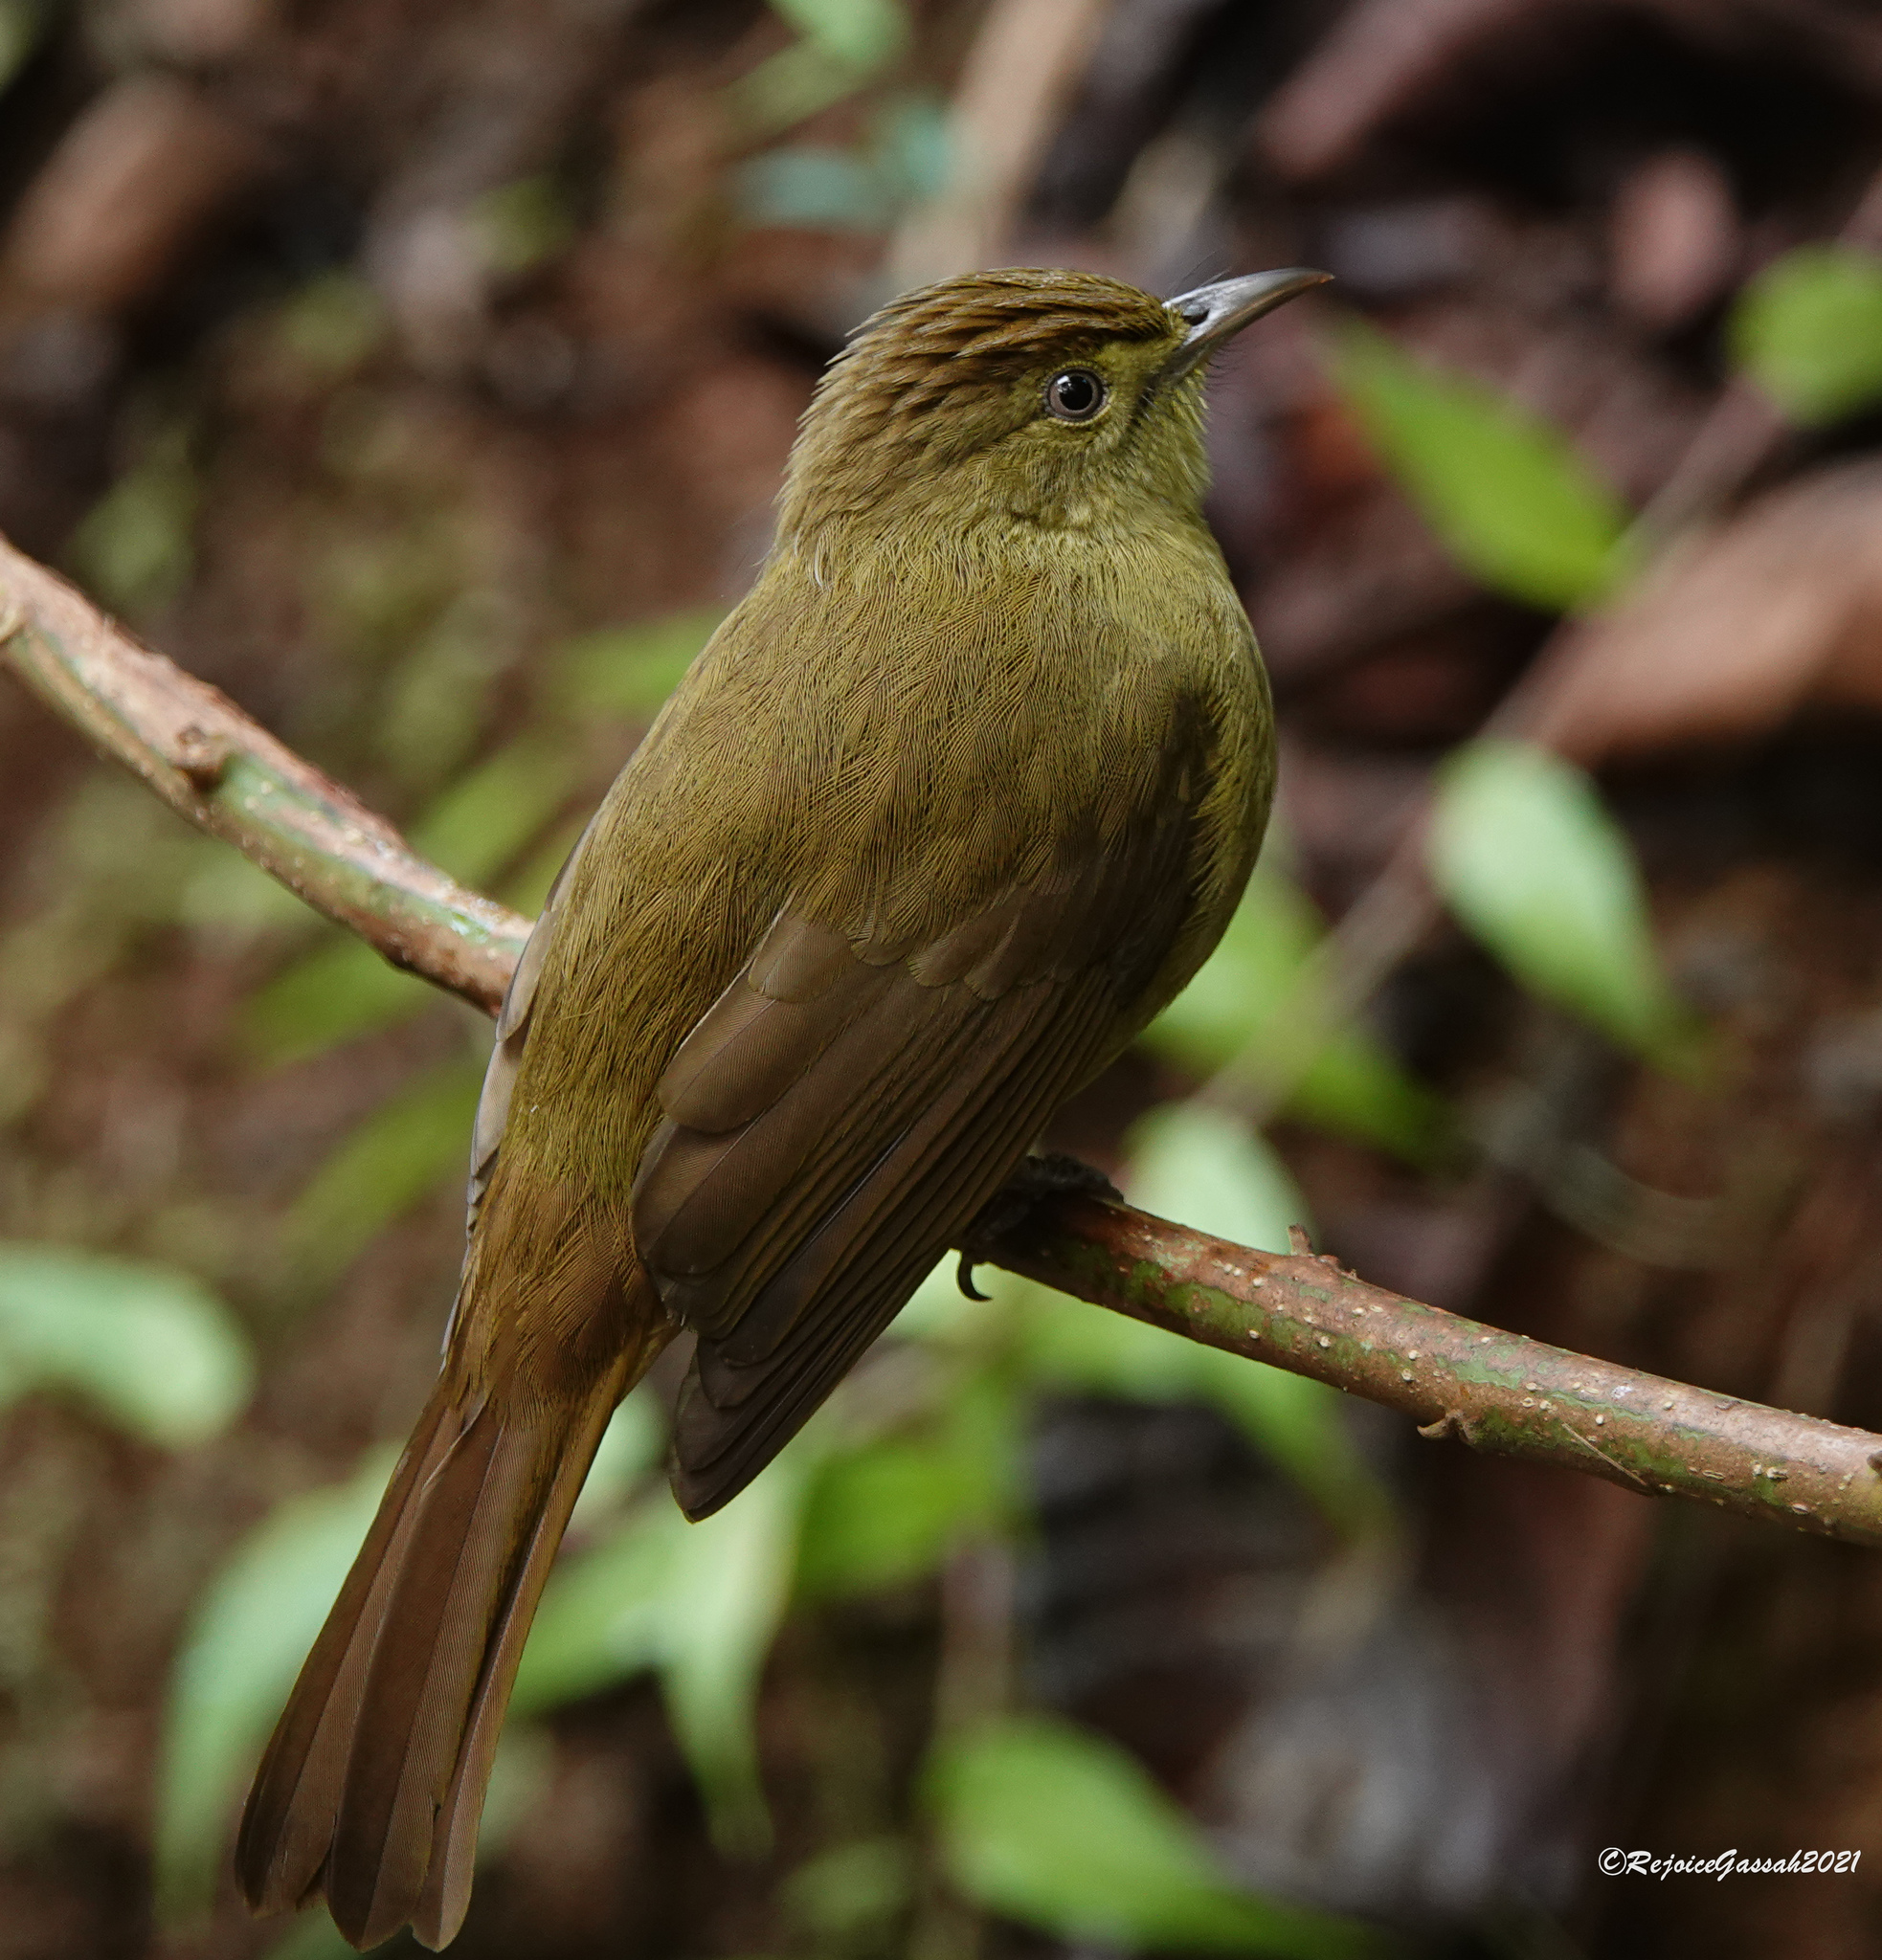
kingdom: Animalia
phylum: Chordata
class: Aves
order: Passeriformes
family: Pycnonotidae
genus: Iole
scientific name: Iole virescens
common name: Olive bulbul
